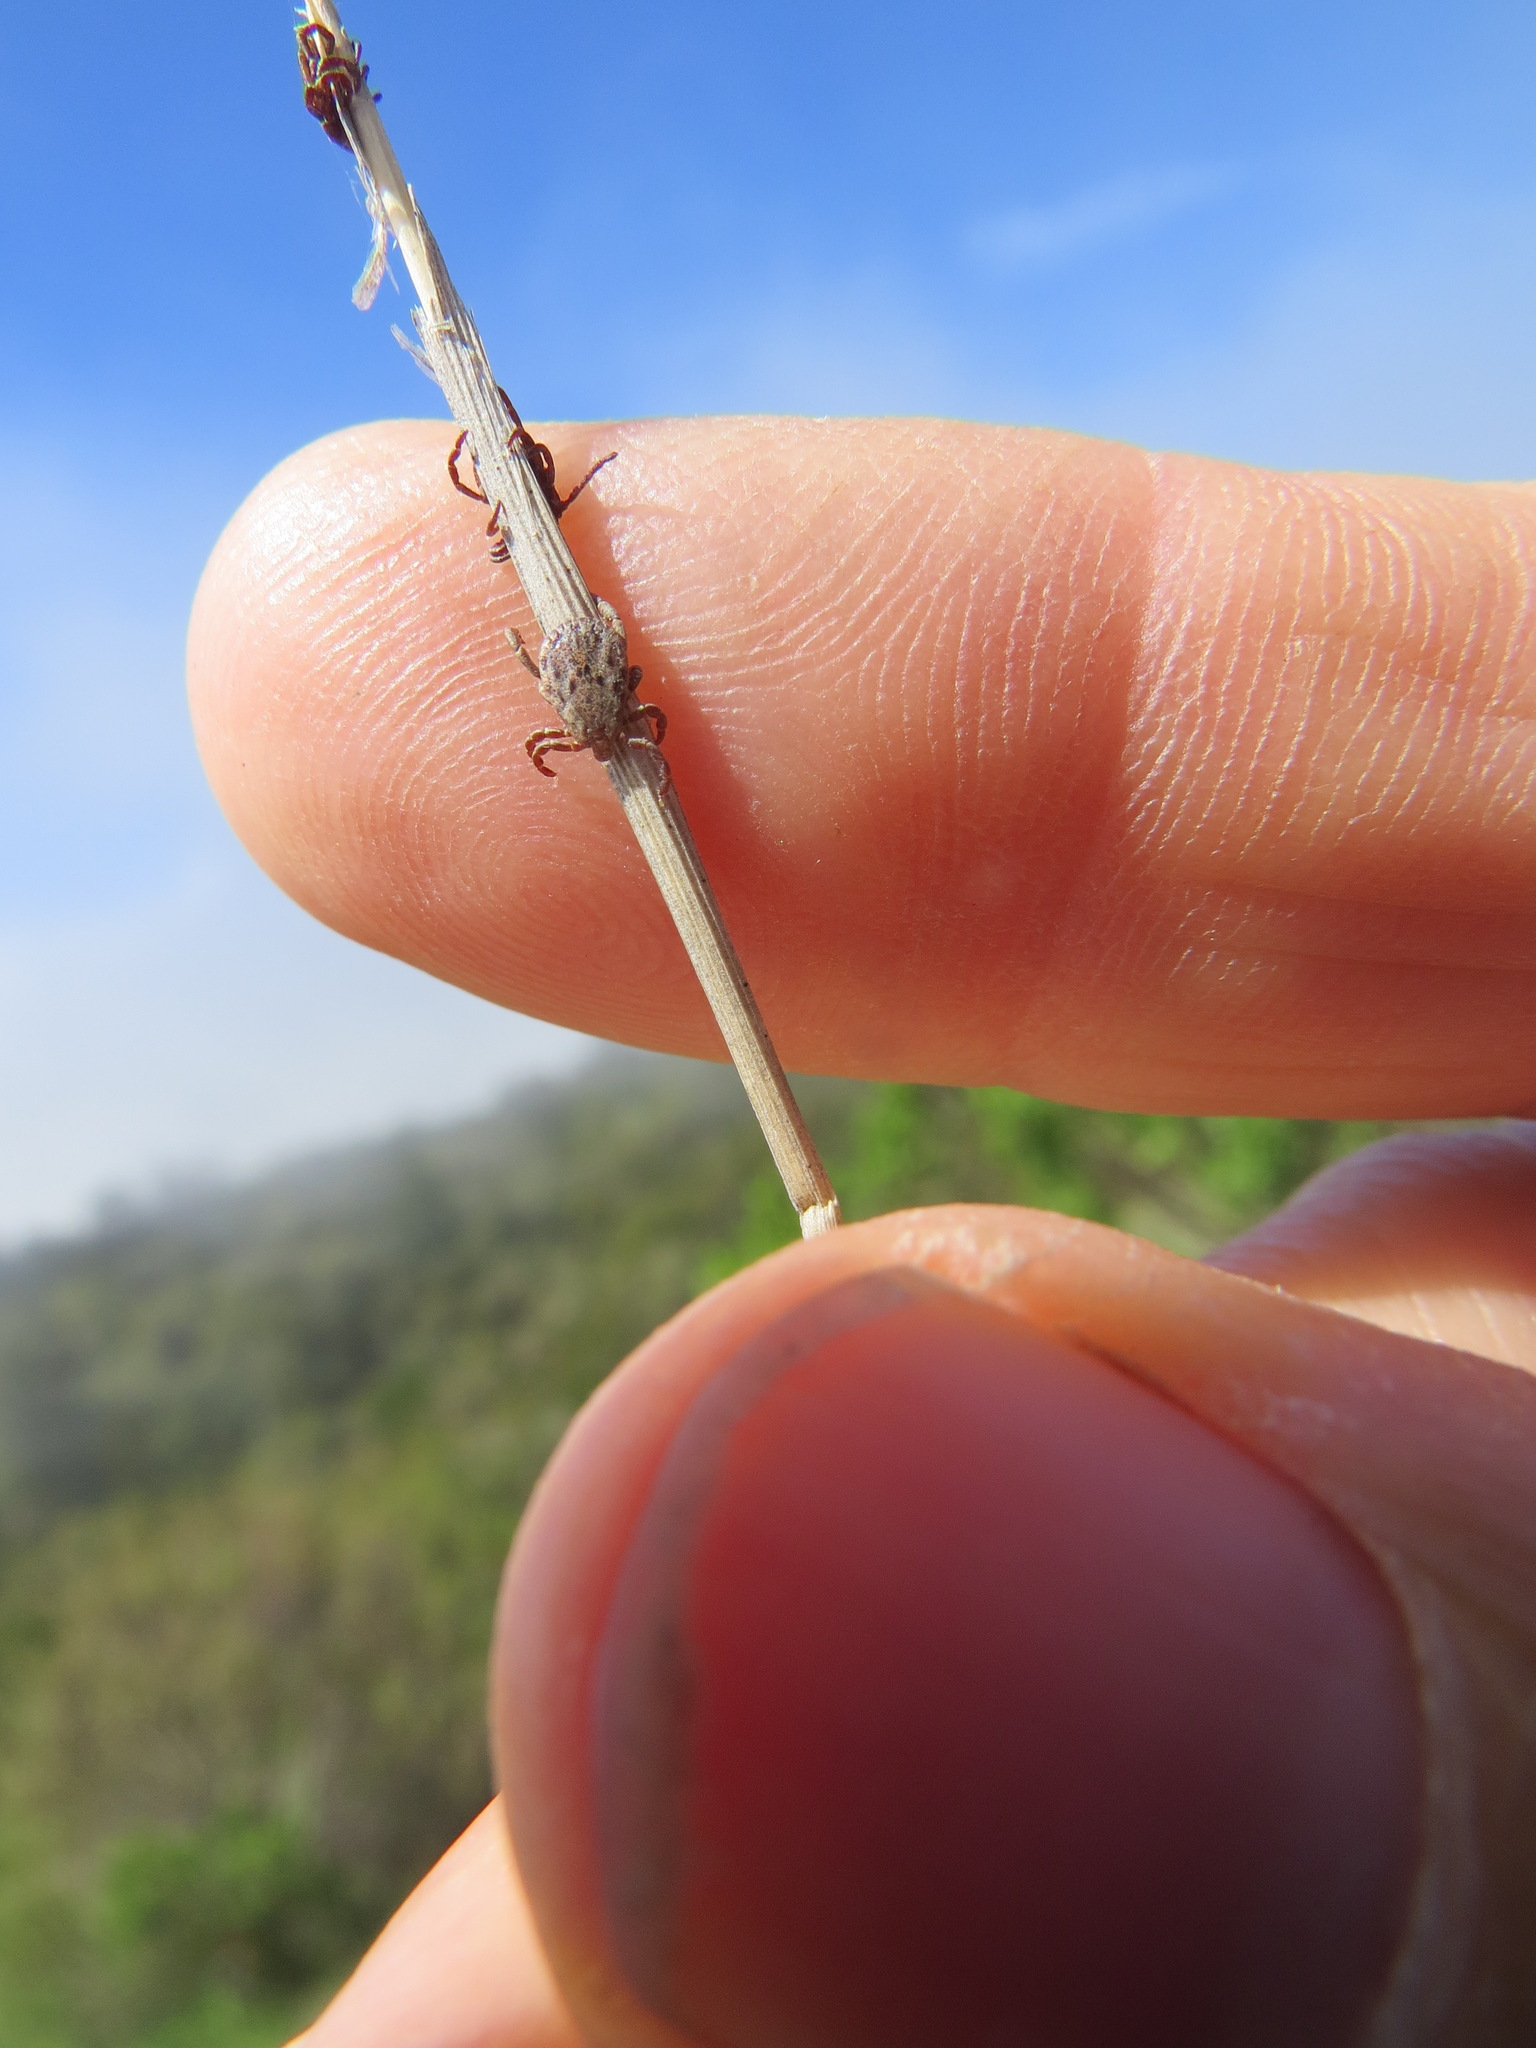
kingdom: Animalia
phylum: Arthropoda
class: Arachnida
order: Ixodida
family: Ixodidae
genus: Dermacentor
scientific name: Dermacentor occidentalis
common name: Net tick
